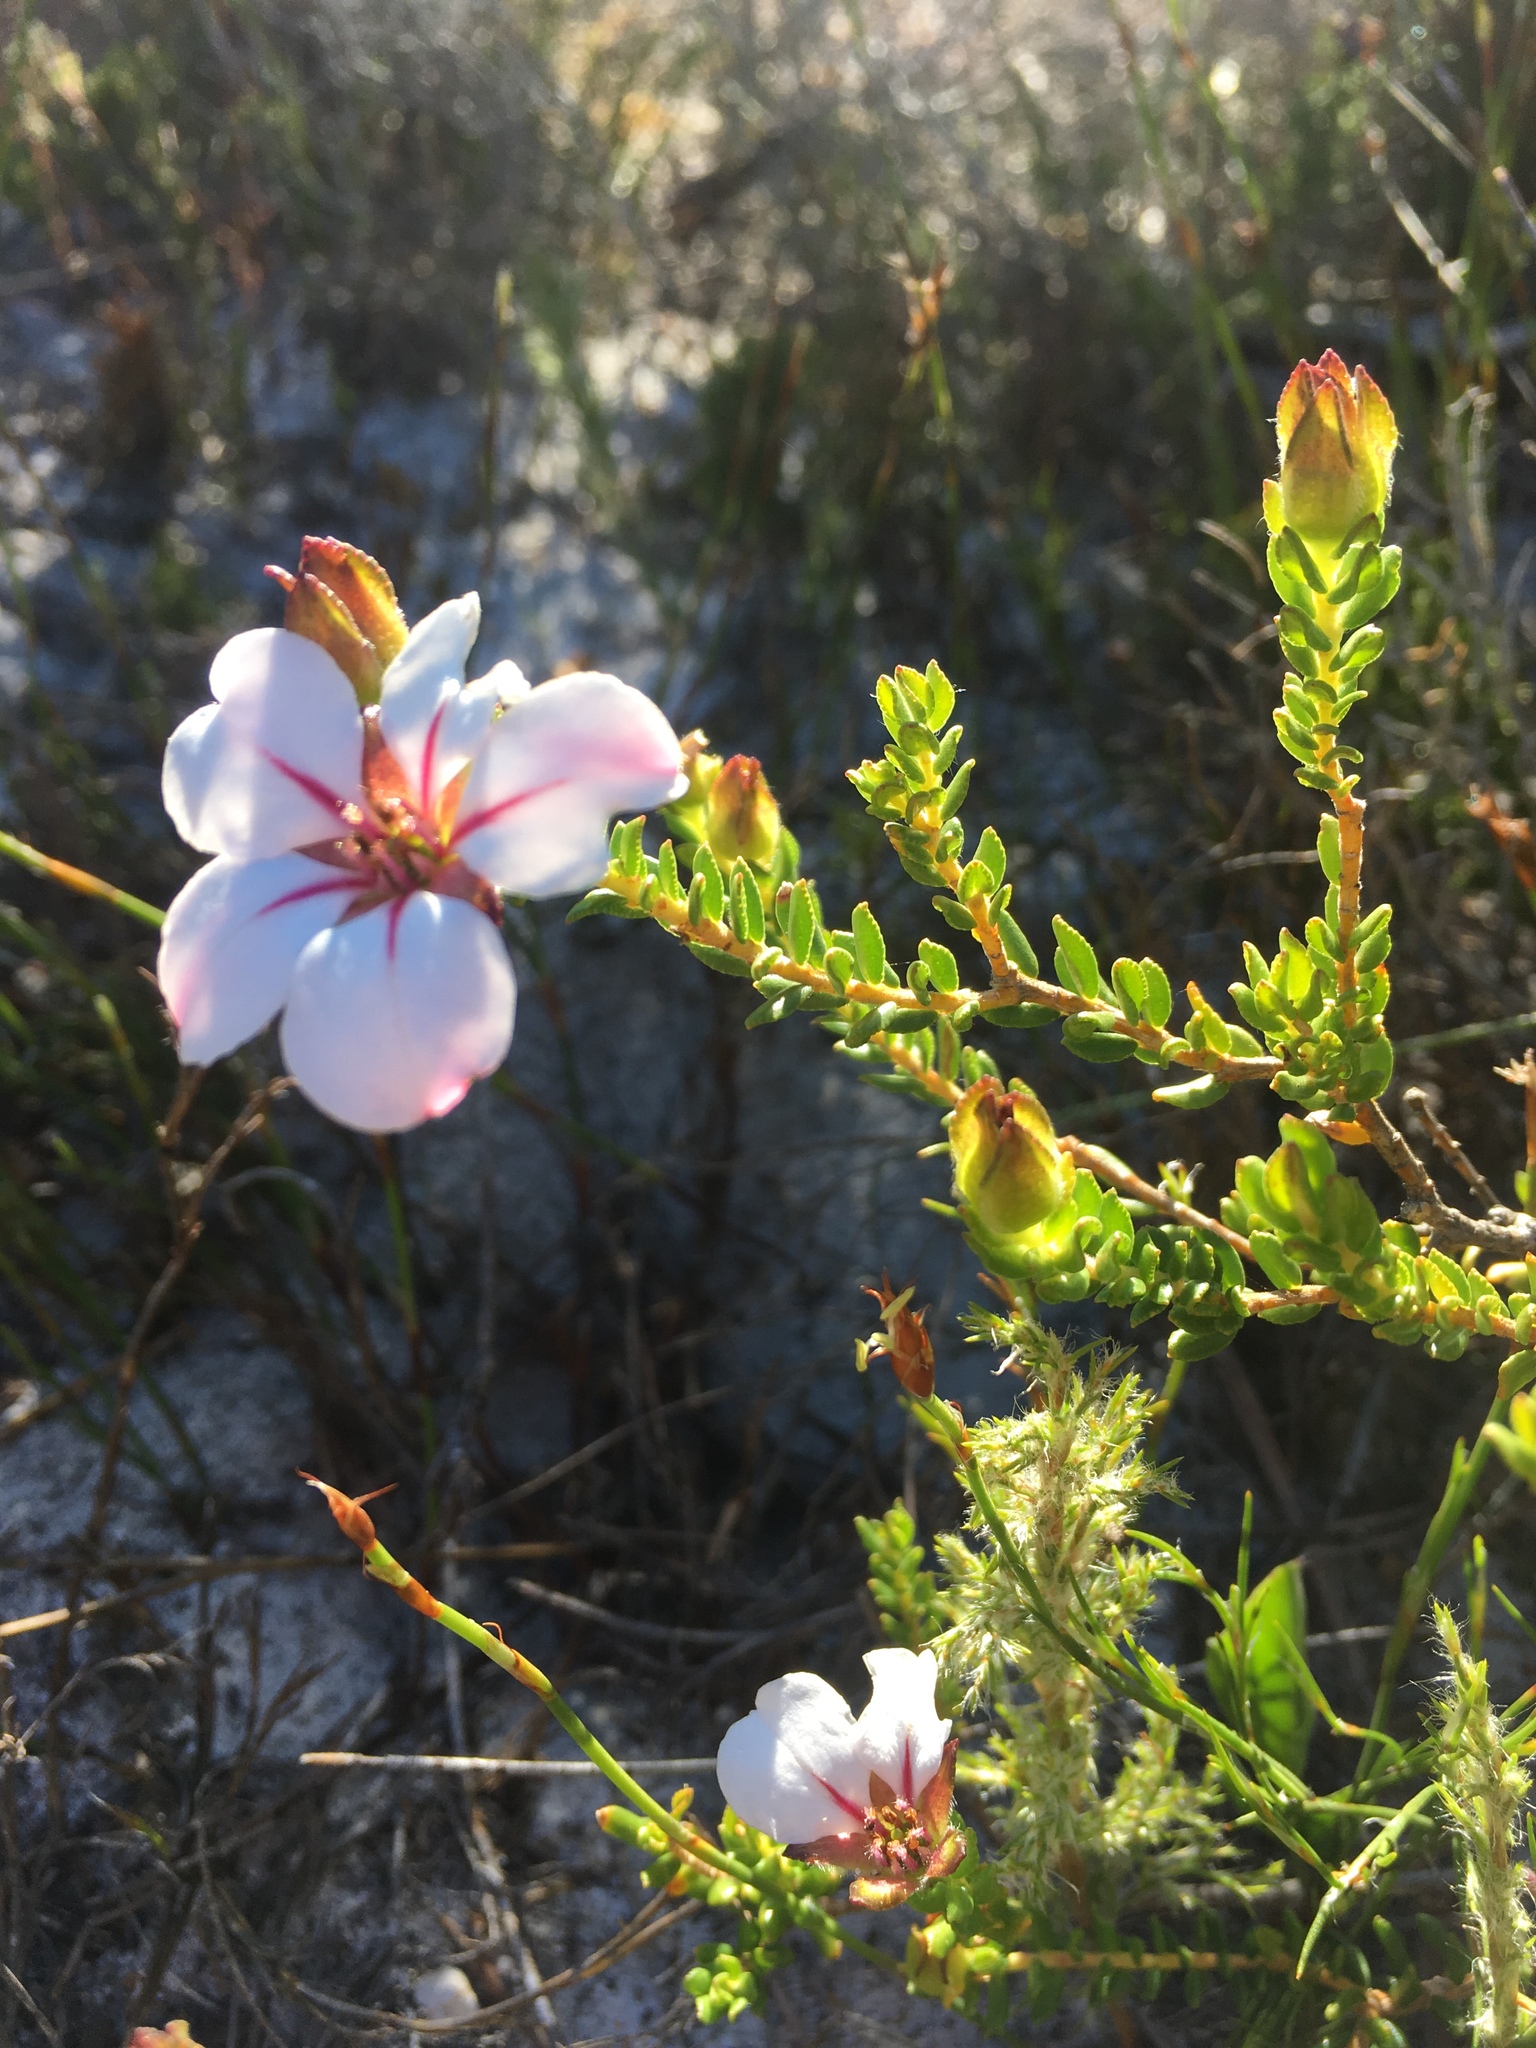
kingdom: Plantae
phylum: Tracheophyta
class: Magnoliopsida
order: Sapindales
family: Rutaceae
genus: Adenandra
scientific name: Adenandra villosa
